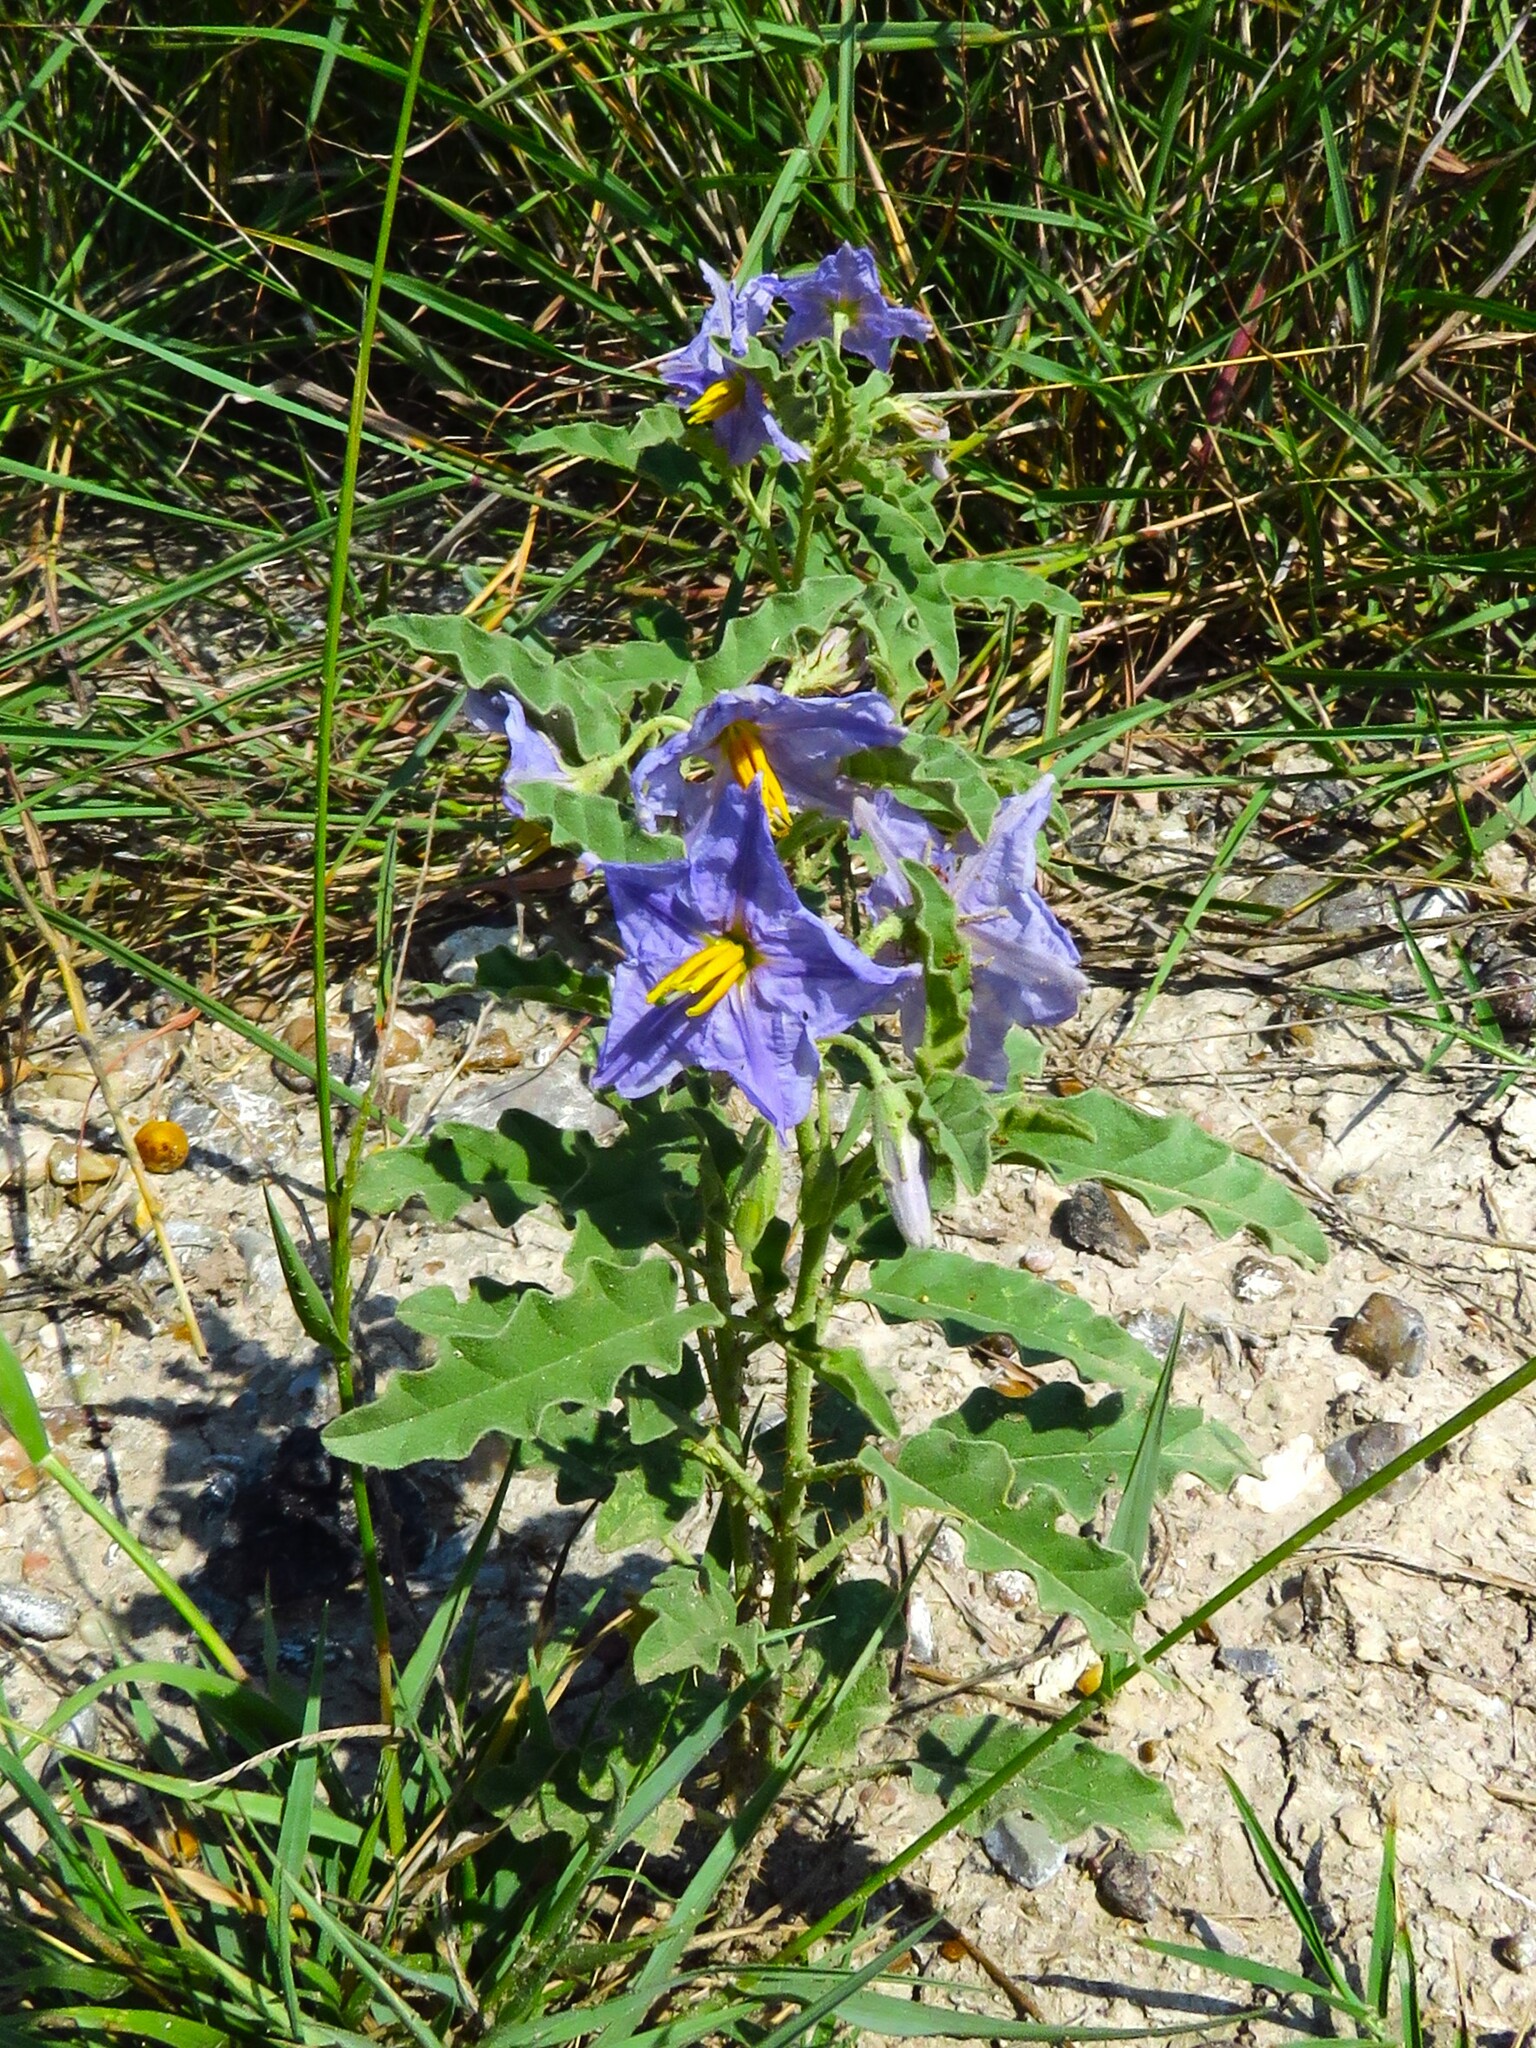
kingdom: Plantae
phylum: Tracheophyta
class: Magnoliopsida
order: Solanales
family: Solanaceae
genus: Solanum
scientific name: Solanum elaeagnifolium
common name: Silverleaf nightshade
